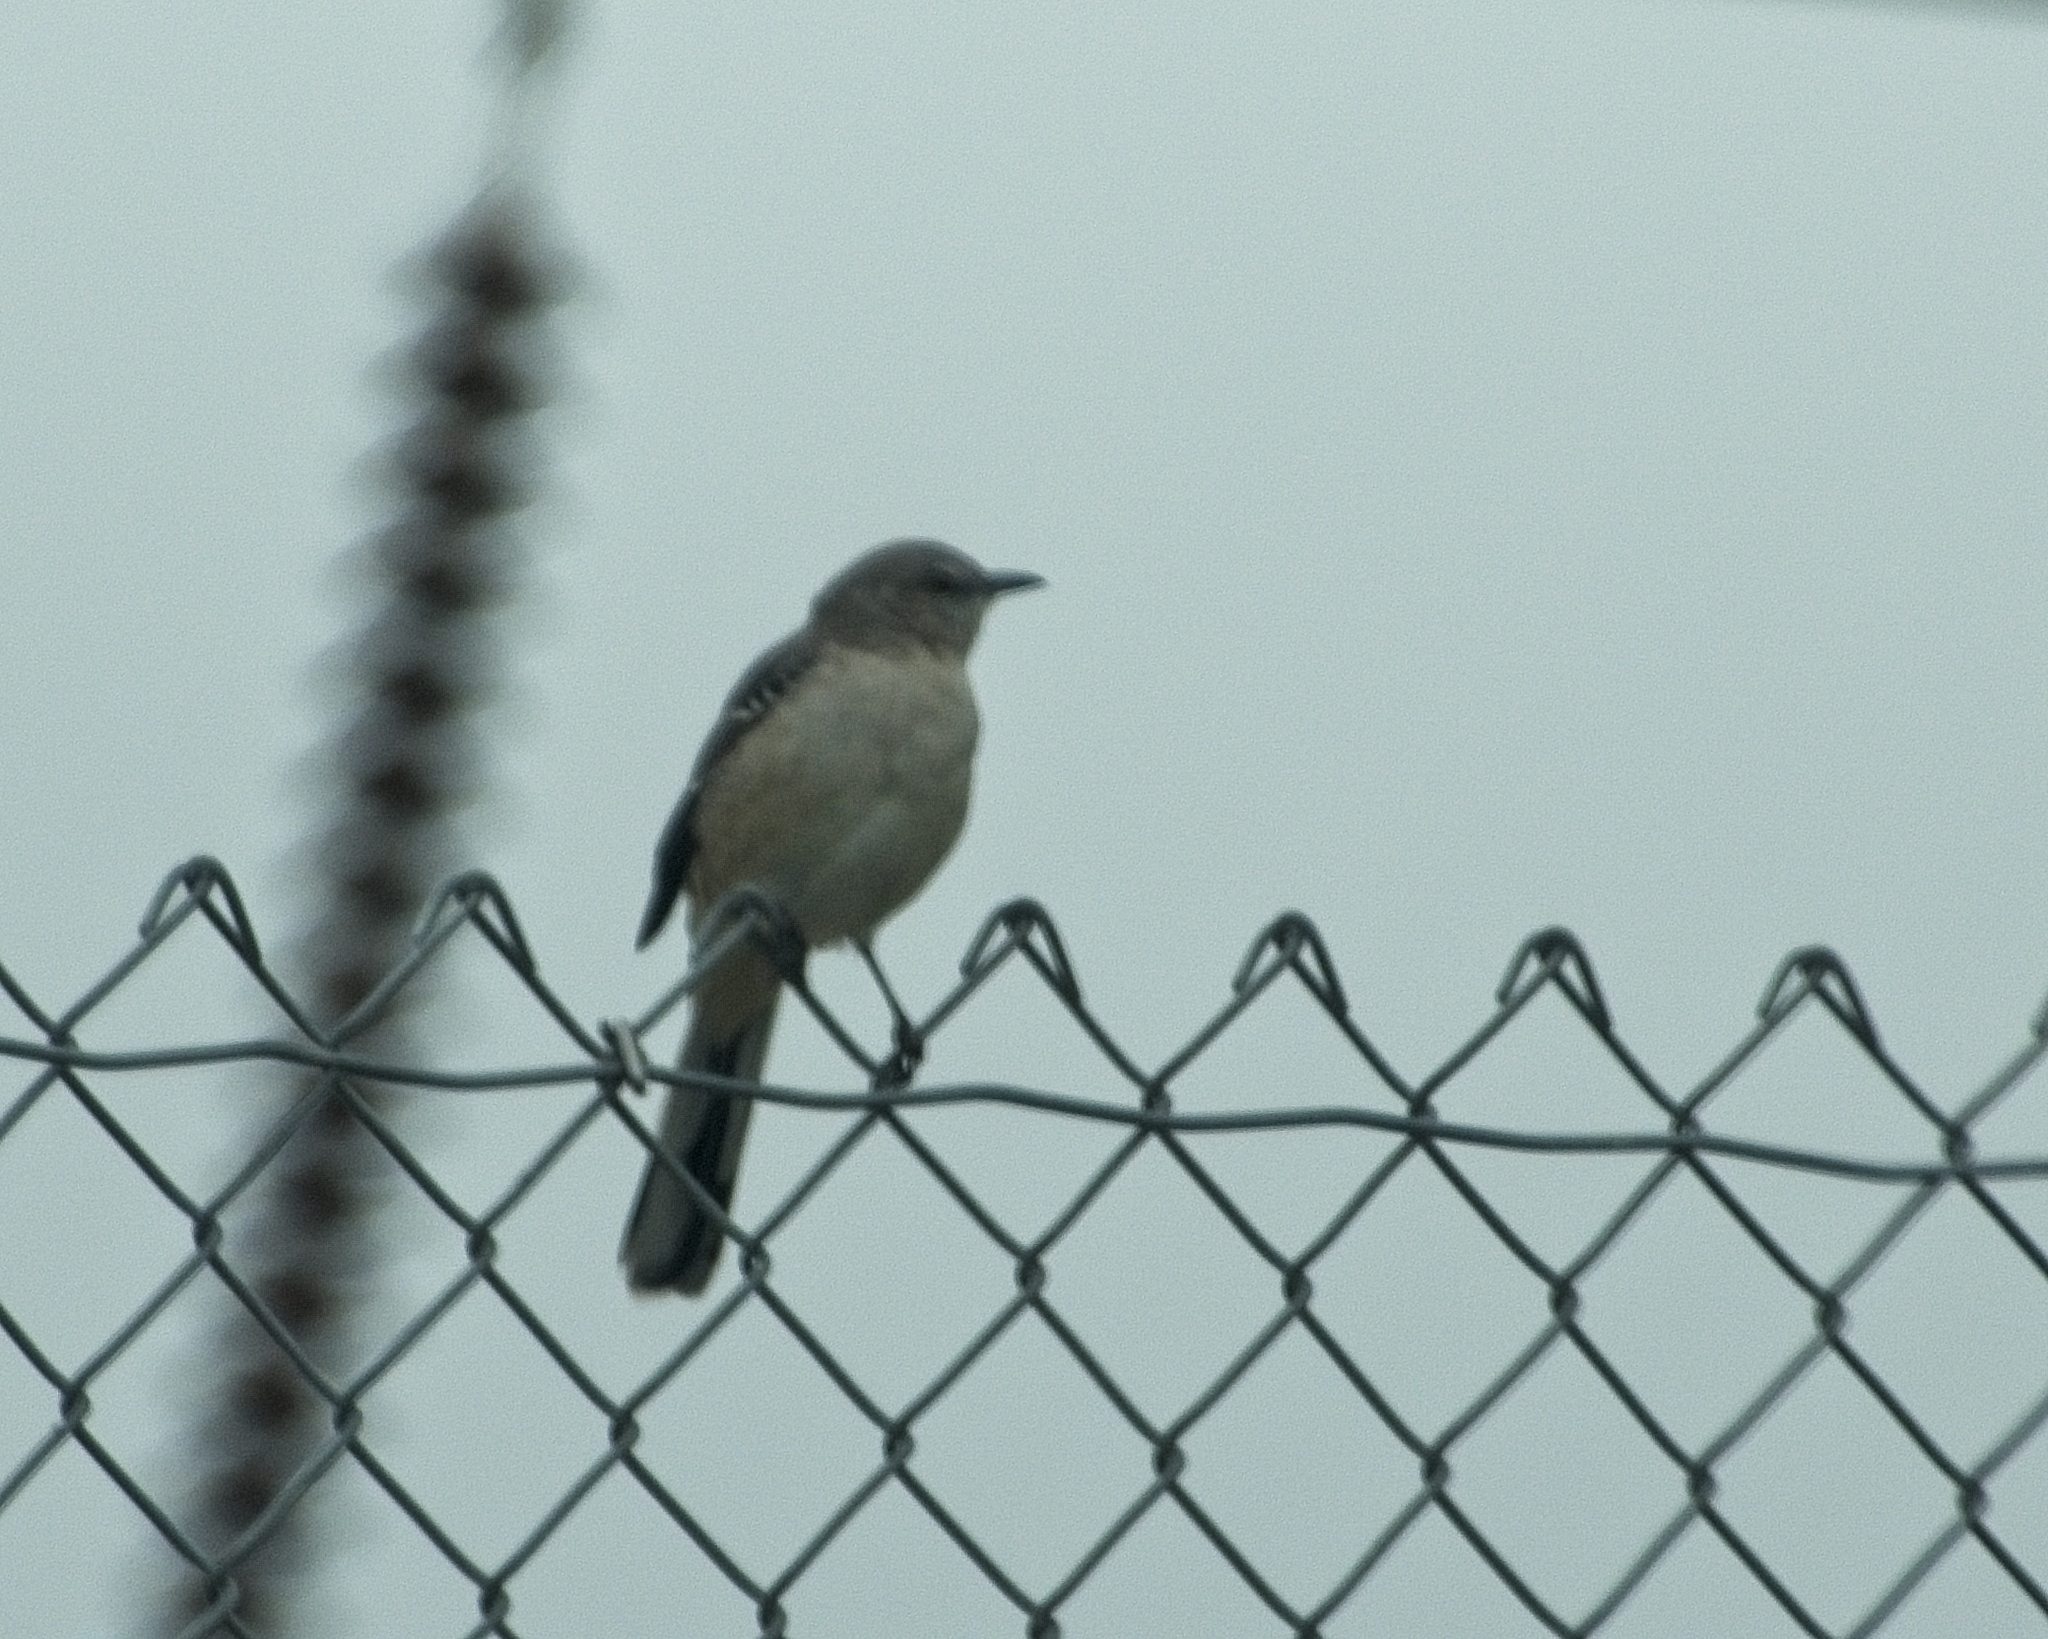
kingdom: Animalia
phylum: Chordata
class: Aves
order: Passeriformes
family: Mimidae
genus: Mimus
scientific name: Mimus polyglottos
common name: Northern mockingbird
